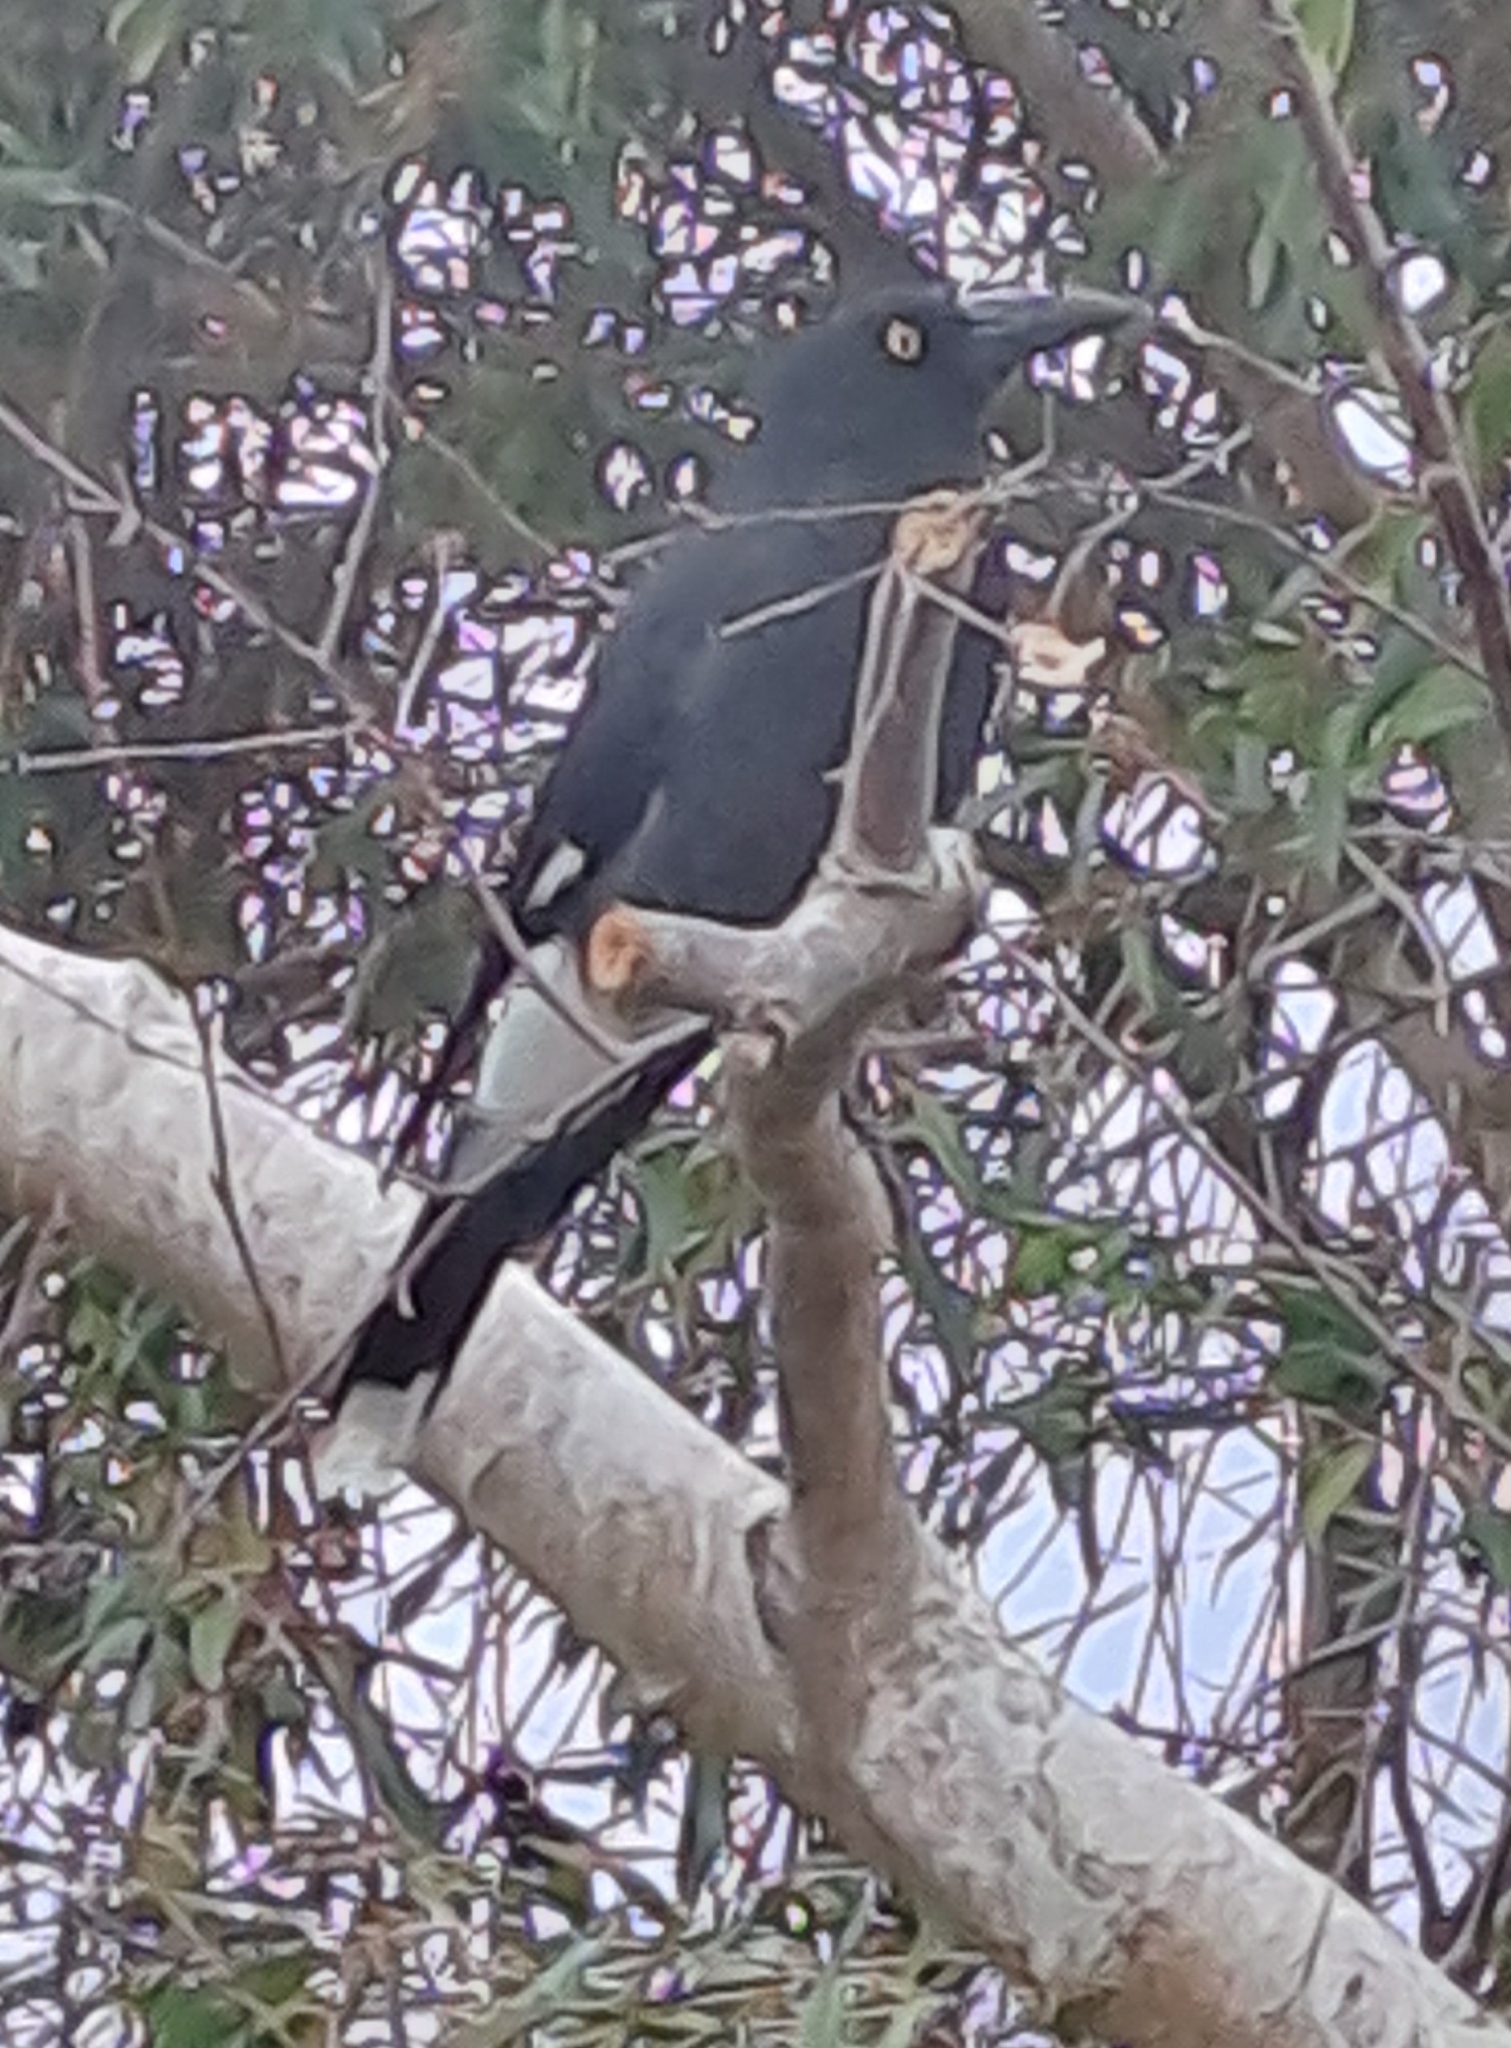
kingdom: Animalia
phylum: Chordata
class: Aves
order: Passeriformes
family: Cracticidae
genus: Strepera
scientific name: Strepera graculina
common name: Pied currawong
